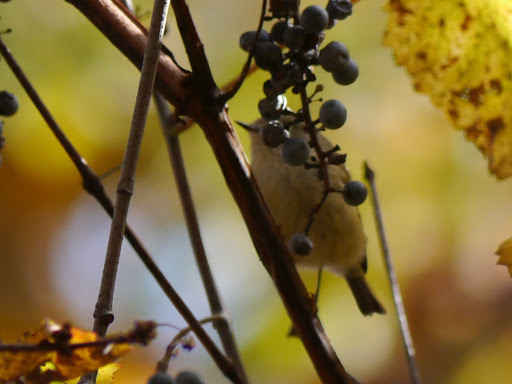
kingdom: Animalia
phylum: Chordata
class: Aves
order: Passeriformes
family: Regulidae
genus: Regulus
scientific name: Regulus calendula
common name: Ruby-crowned kinglet
